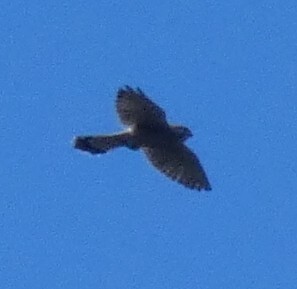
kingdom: Animalia
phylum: Chordata
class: Aves
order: Falconiformes
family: Falconidae
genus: Falco
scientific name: Falco tinnunculus
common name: Common kestrel
